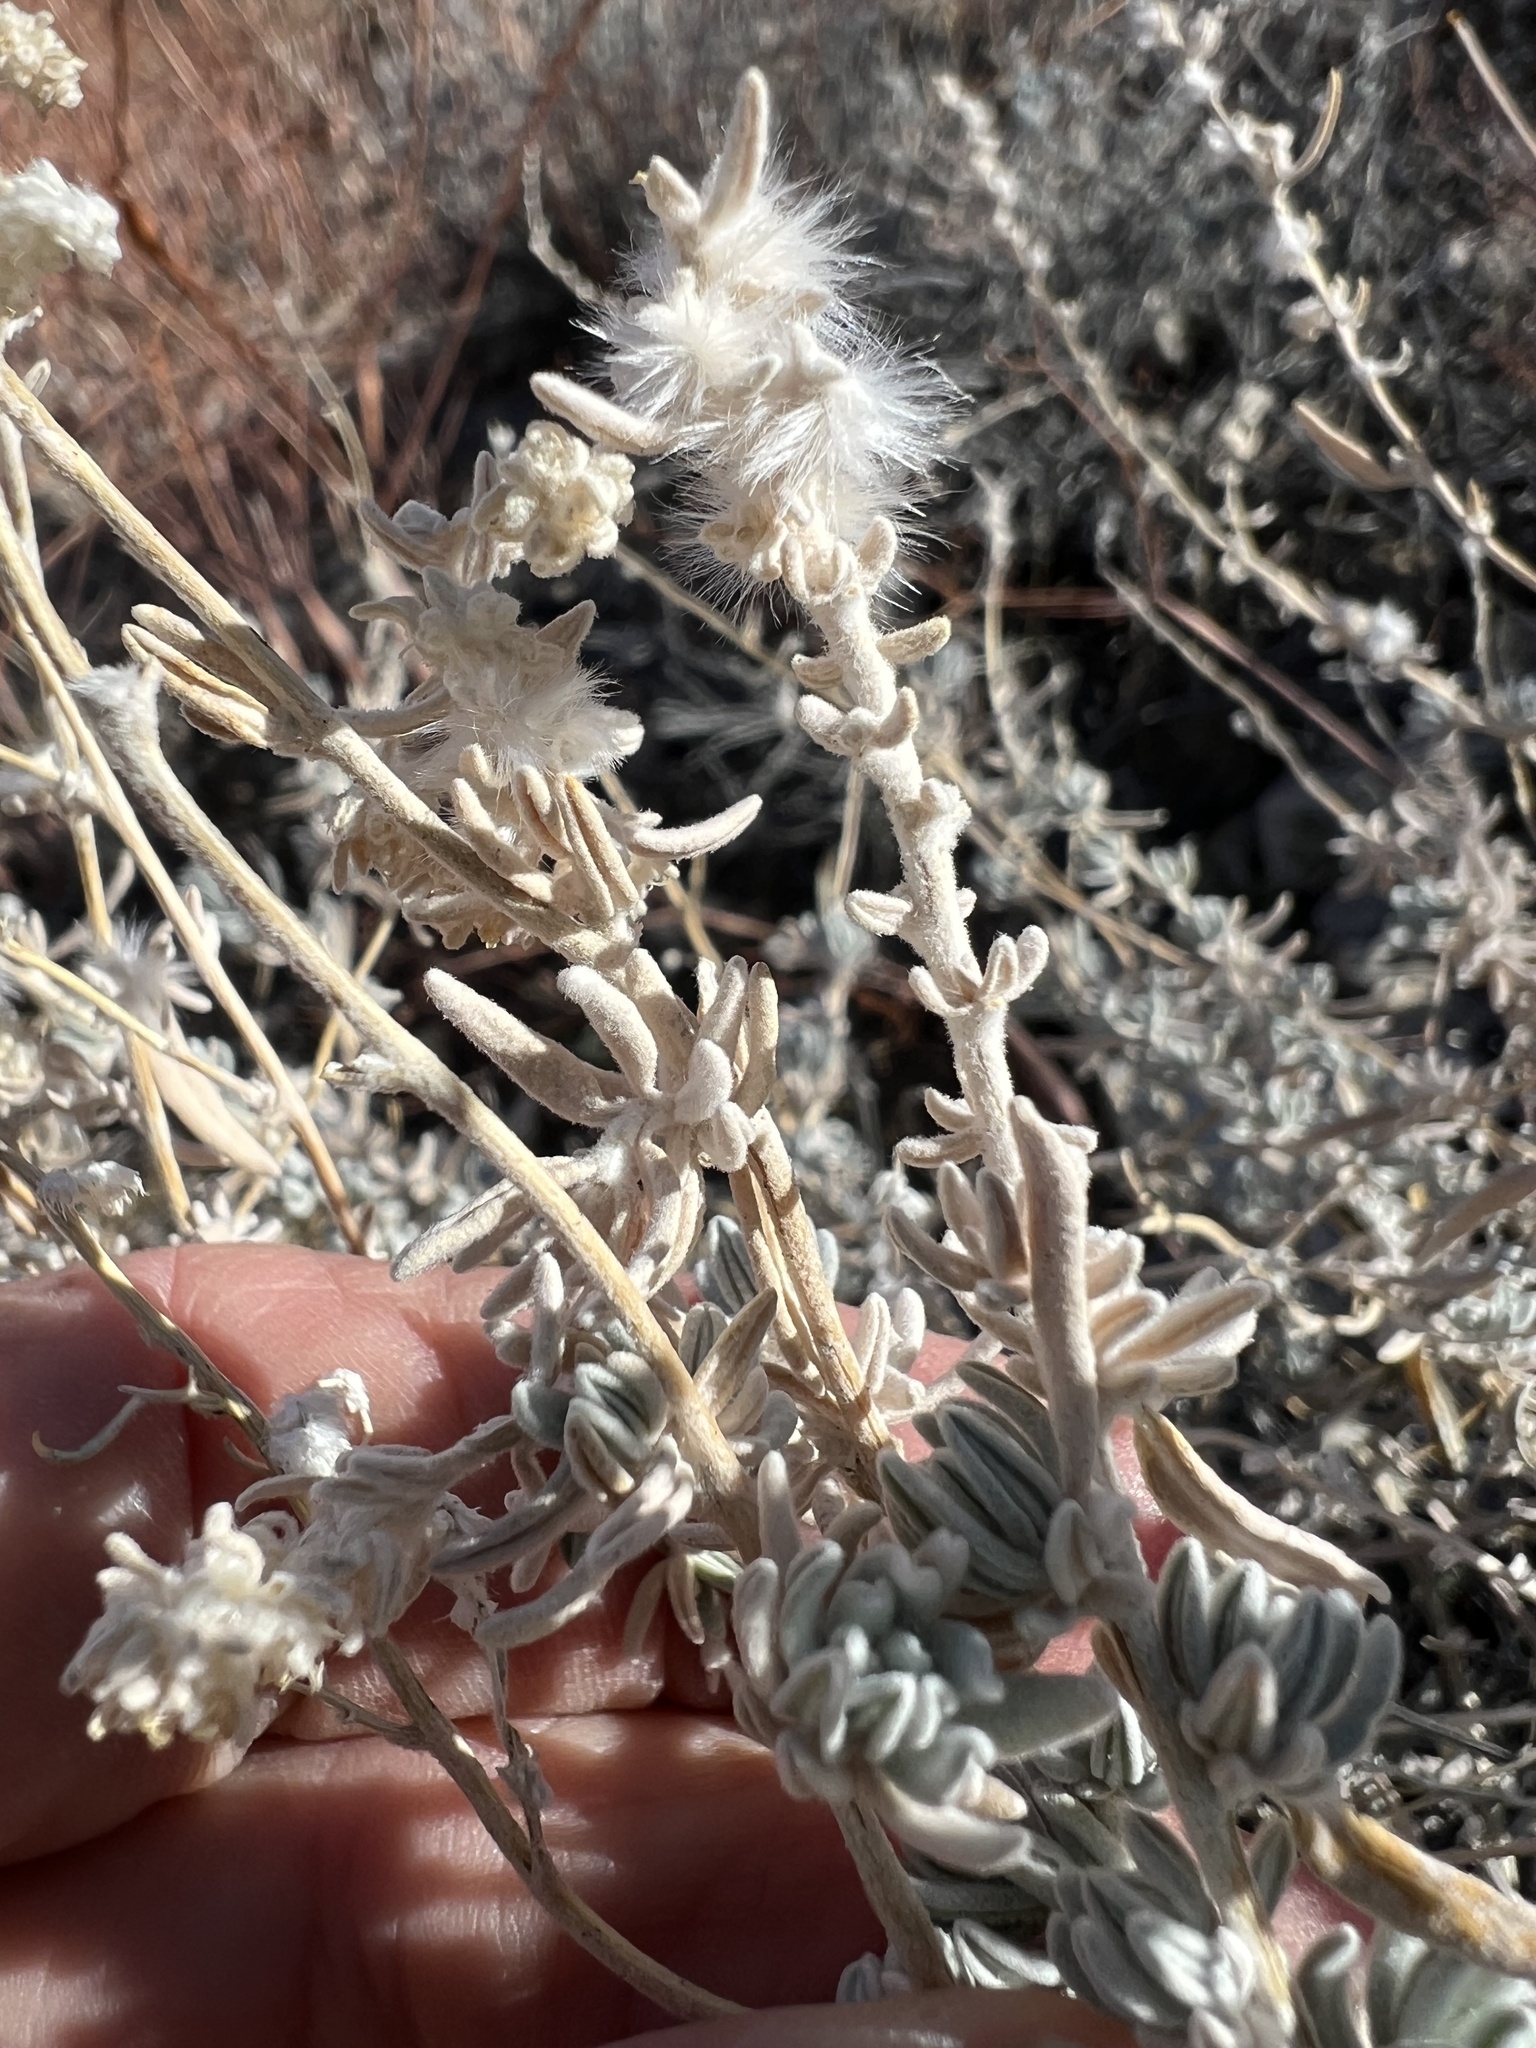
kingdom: Plantae
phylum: Tracheophyta
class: Magnoliopsida
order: Caryophyllales
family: Amaranthaceae
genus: Krascheninnikovia
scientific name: Krascheninnikovia lanata
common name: Winterfat
